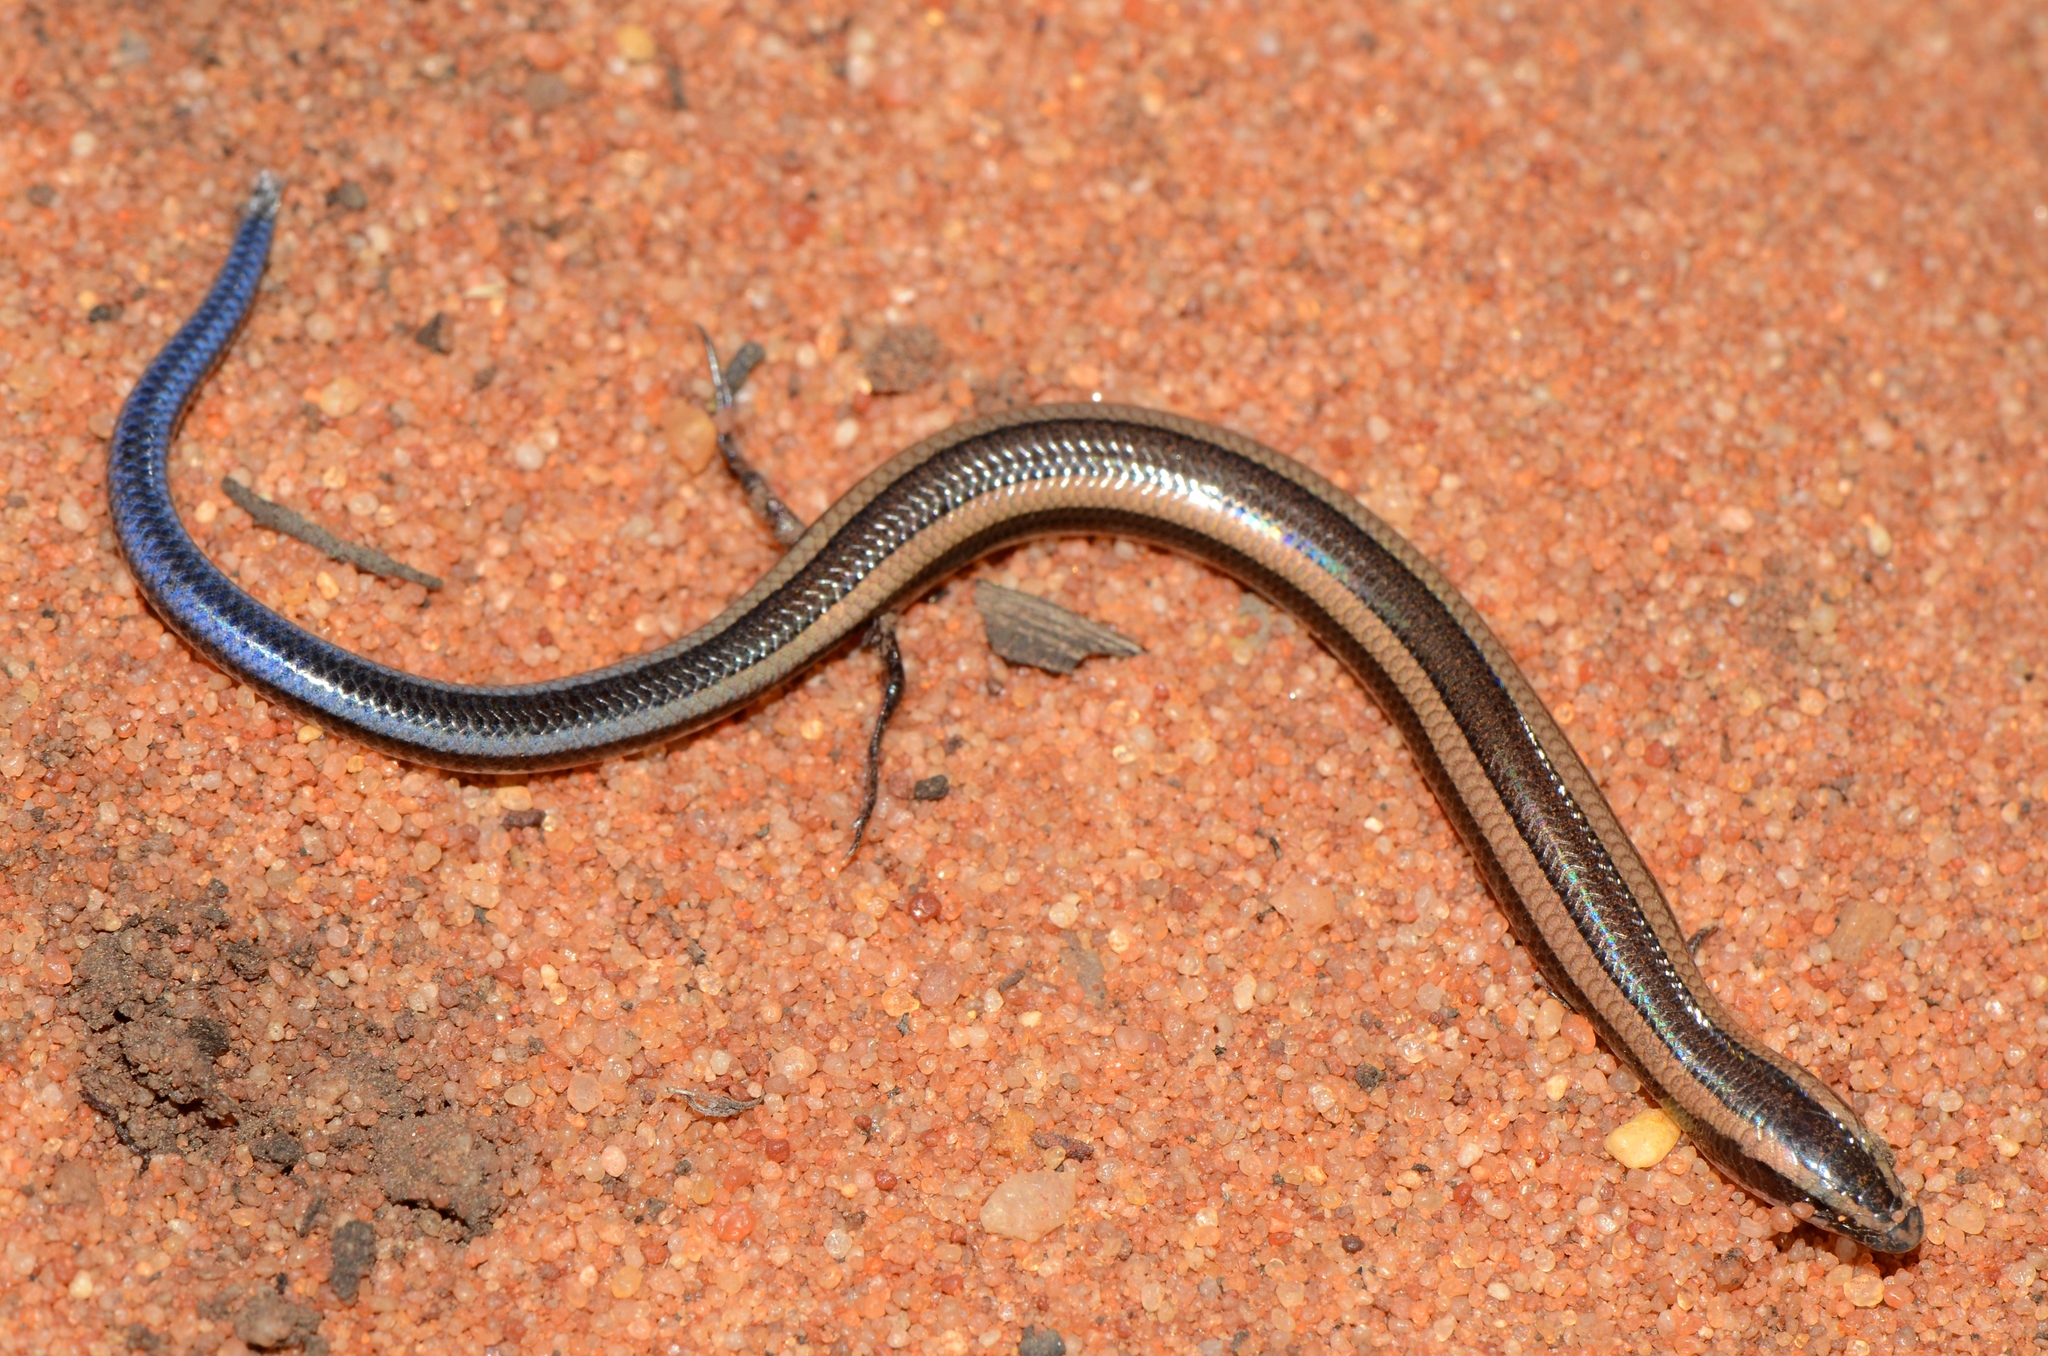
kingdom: Animalia
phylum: Chordata
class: Squamata
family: Scincidae
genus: Scelotes
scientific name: Scelotes limpopoensis
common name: Limpopo dwarf burrowing skink
